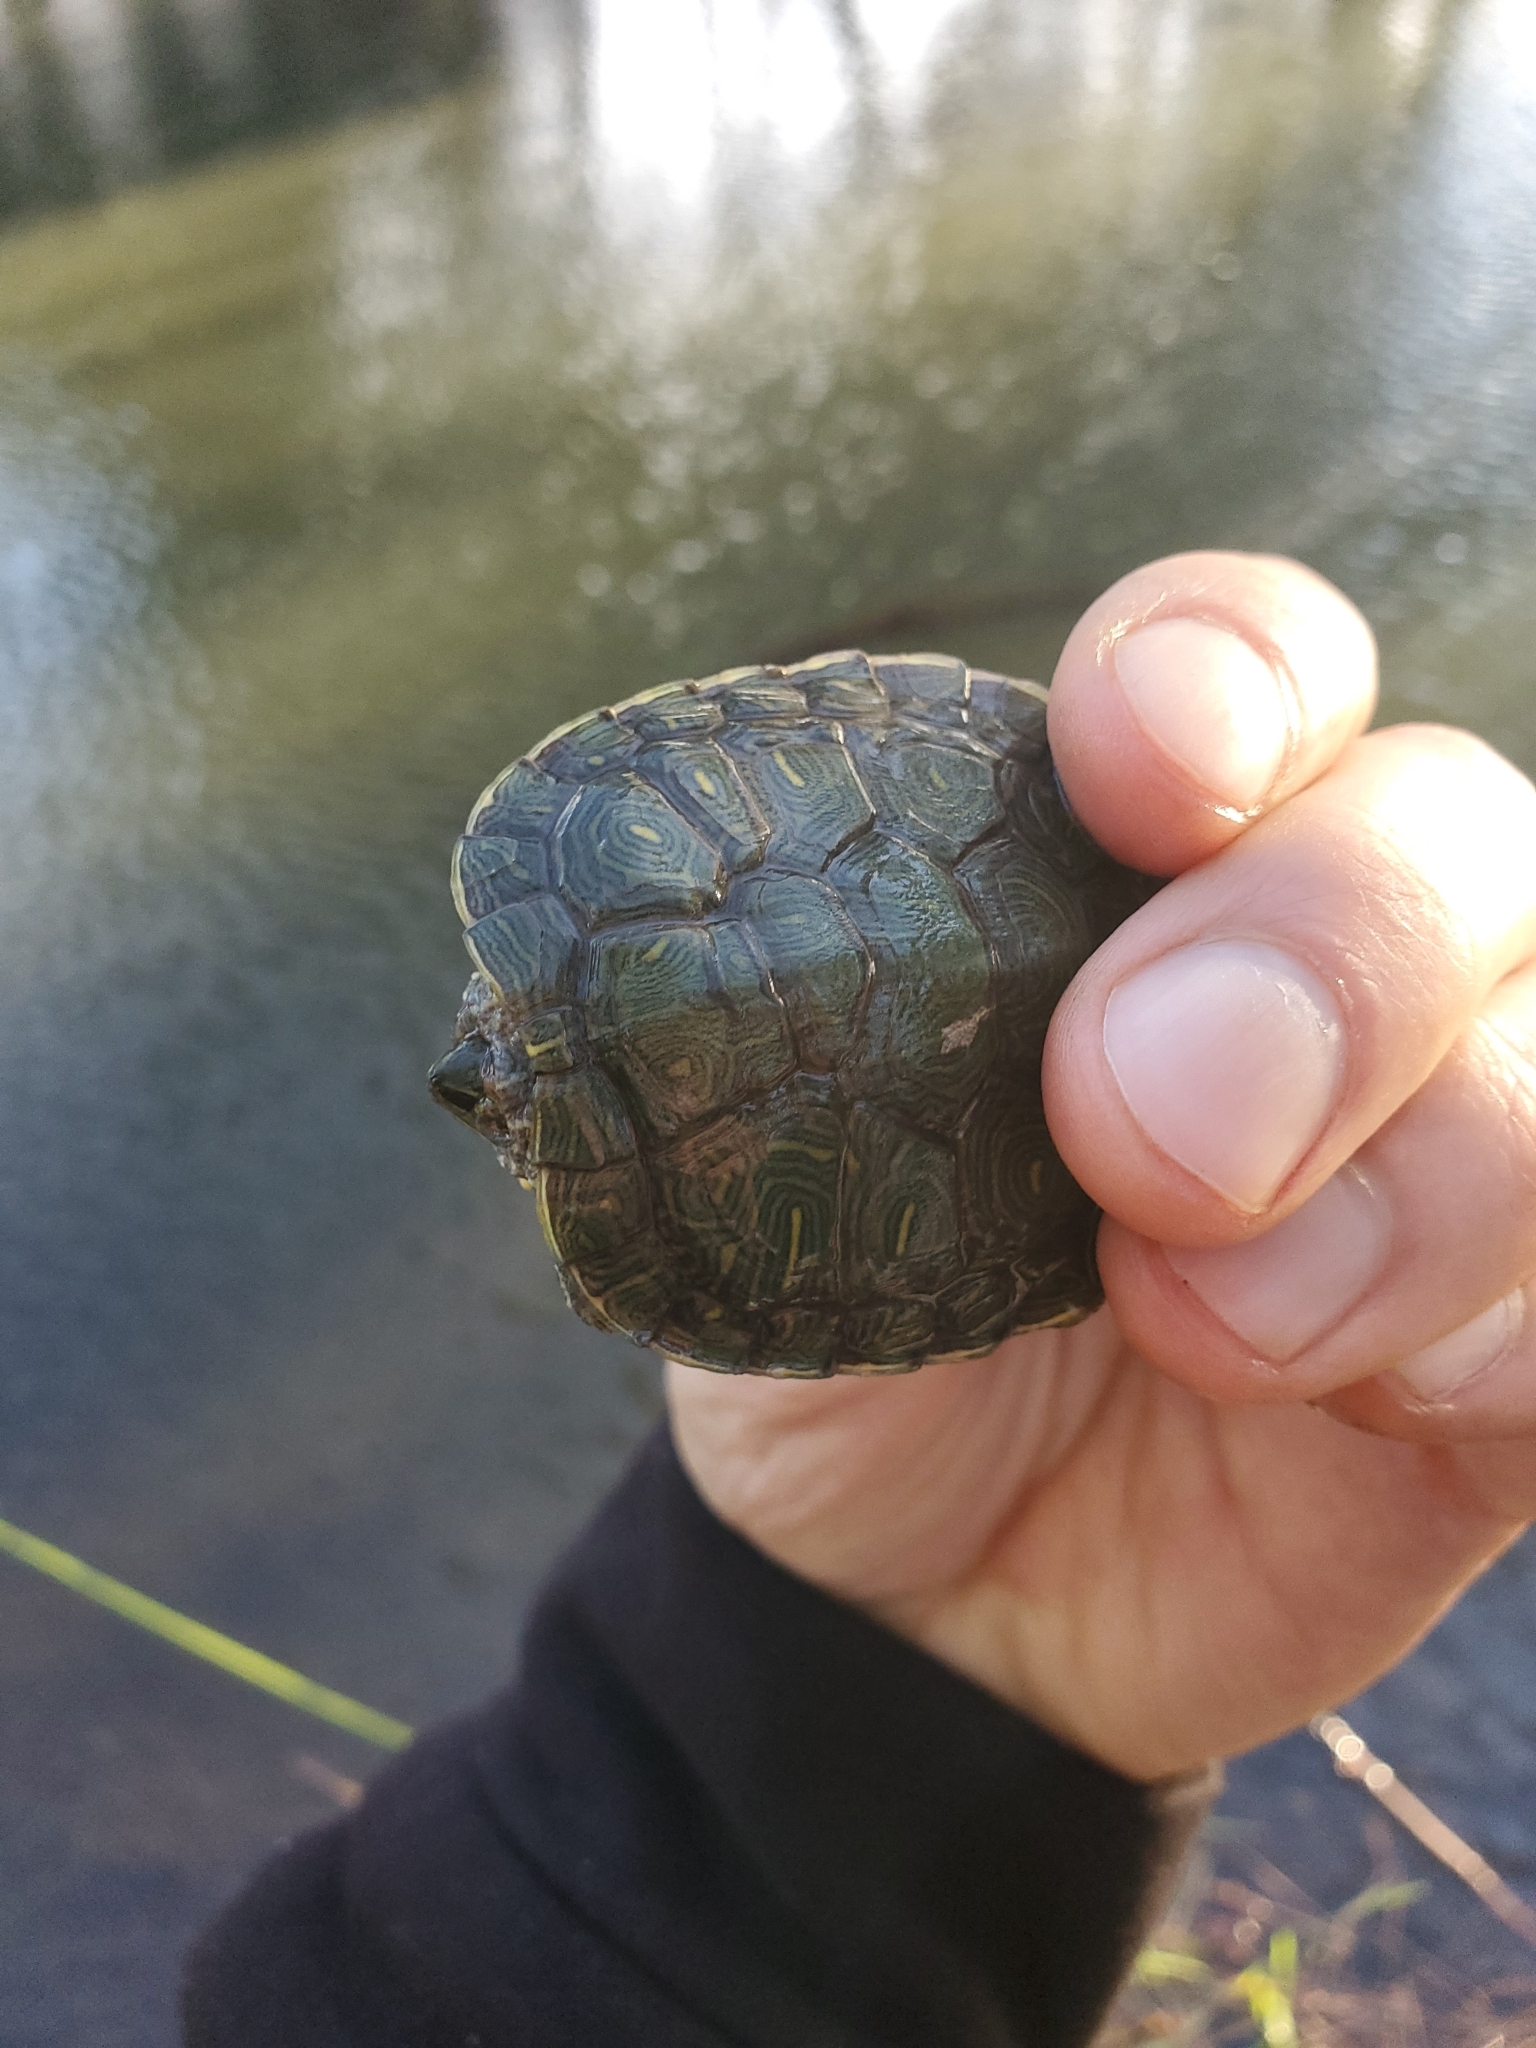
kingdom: Animalia
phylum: Chordata
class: Testudines
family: Emydidae
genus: Trachemys
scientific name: Trachemys scripta
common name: Slider
